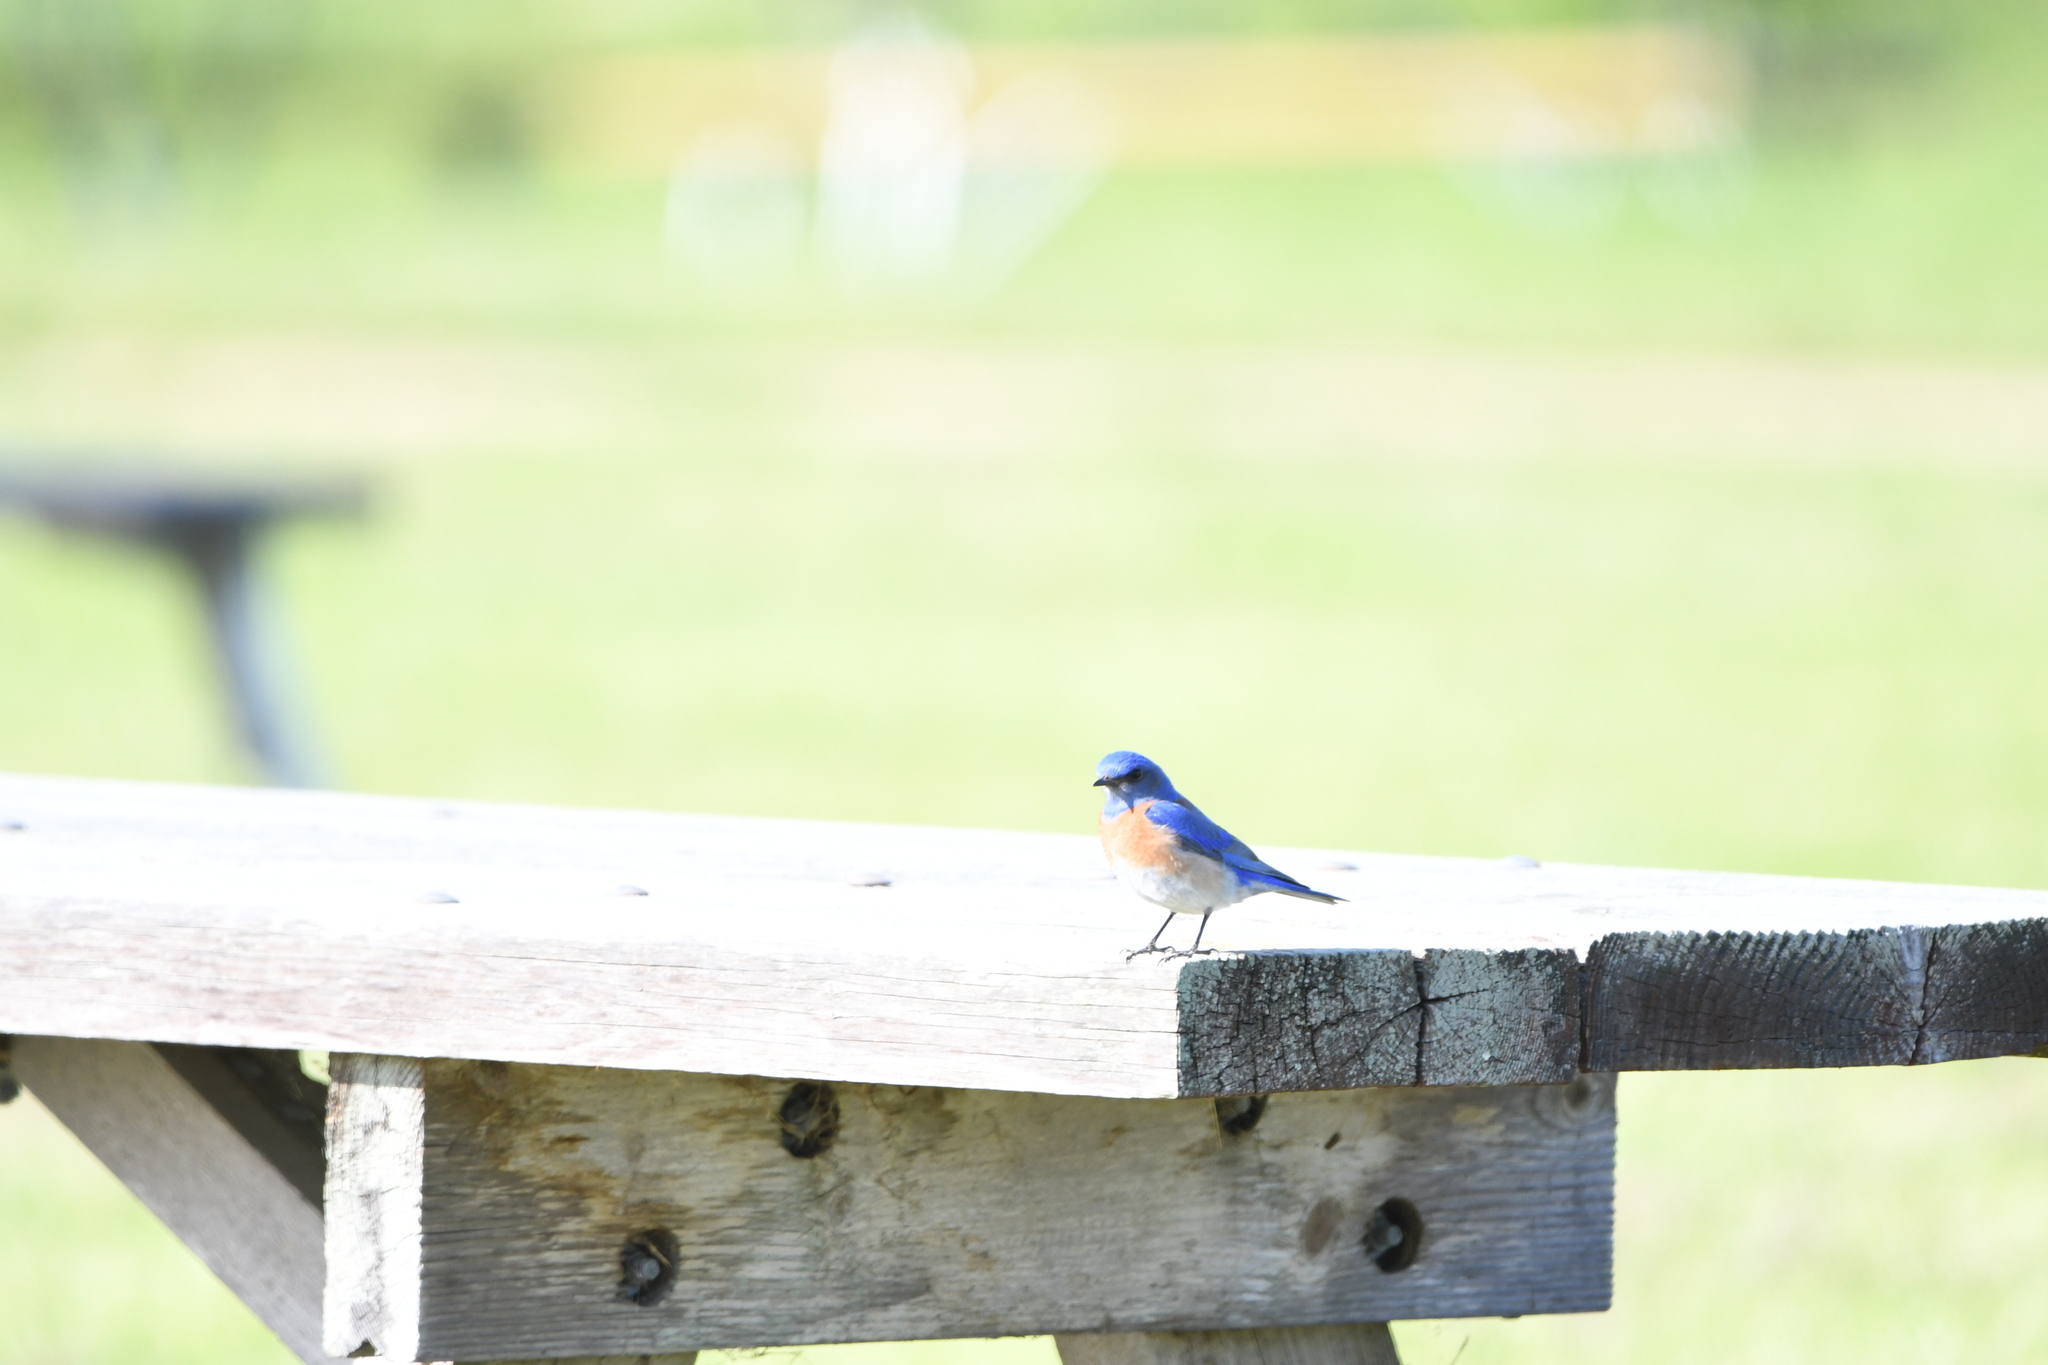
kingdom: Animalia
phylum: Chordata
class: Aves
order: Passeriformes
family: Turdidae
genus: Sialia
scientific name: Sialia mexicana
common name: Western bluebird
